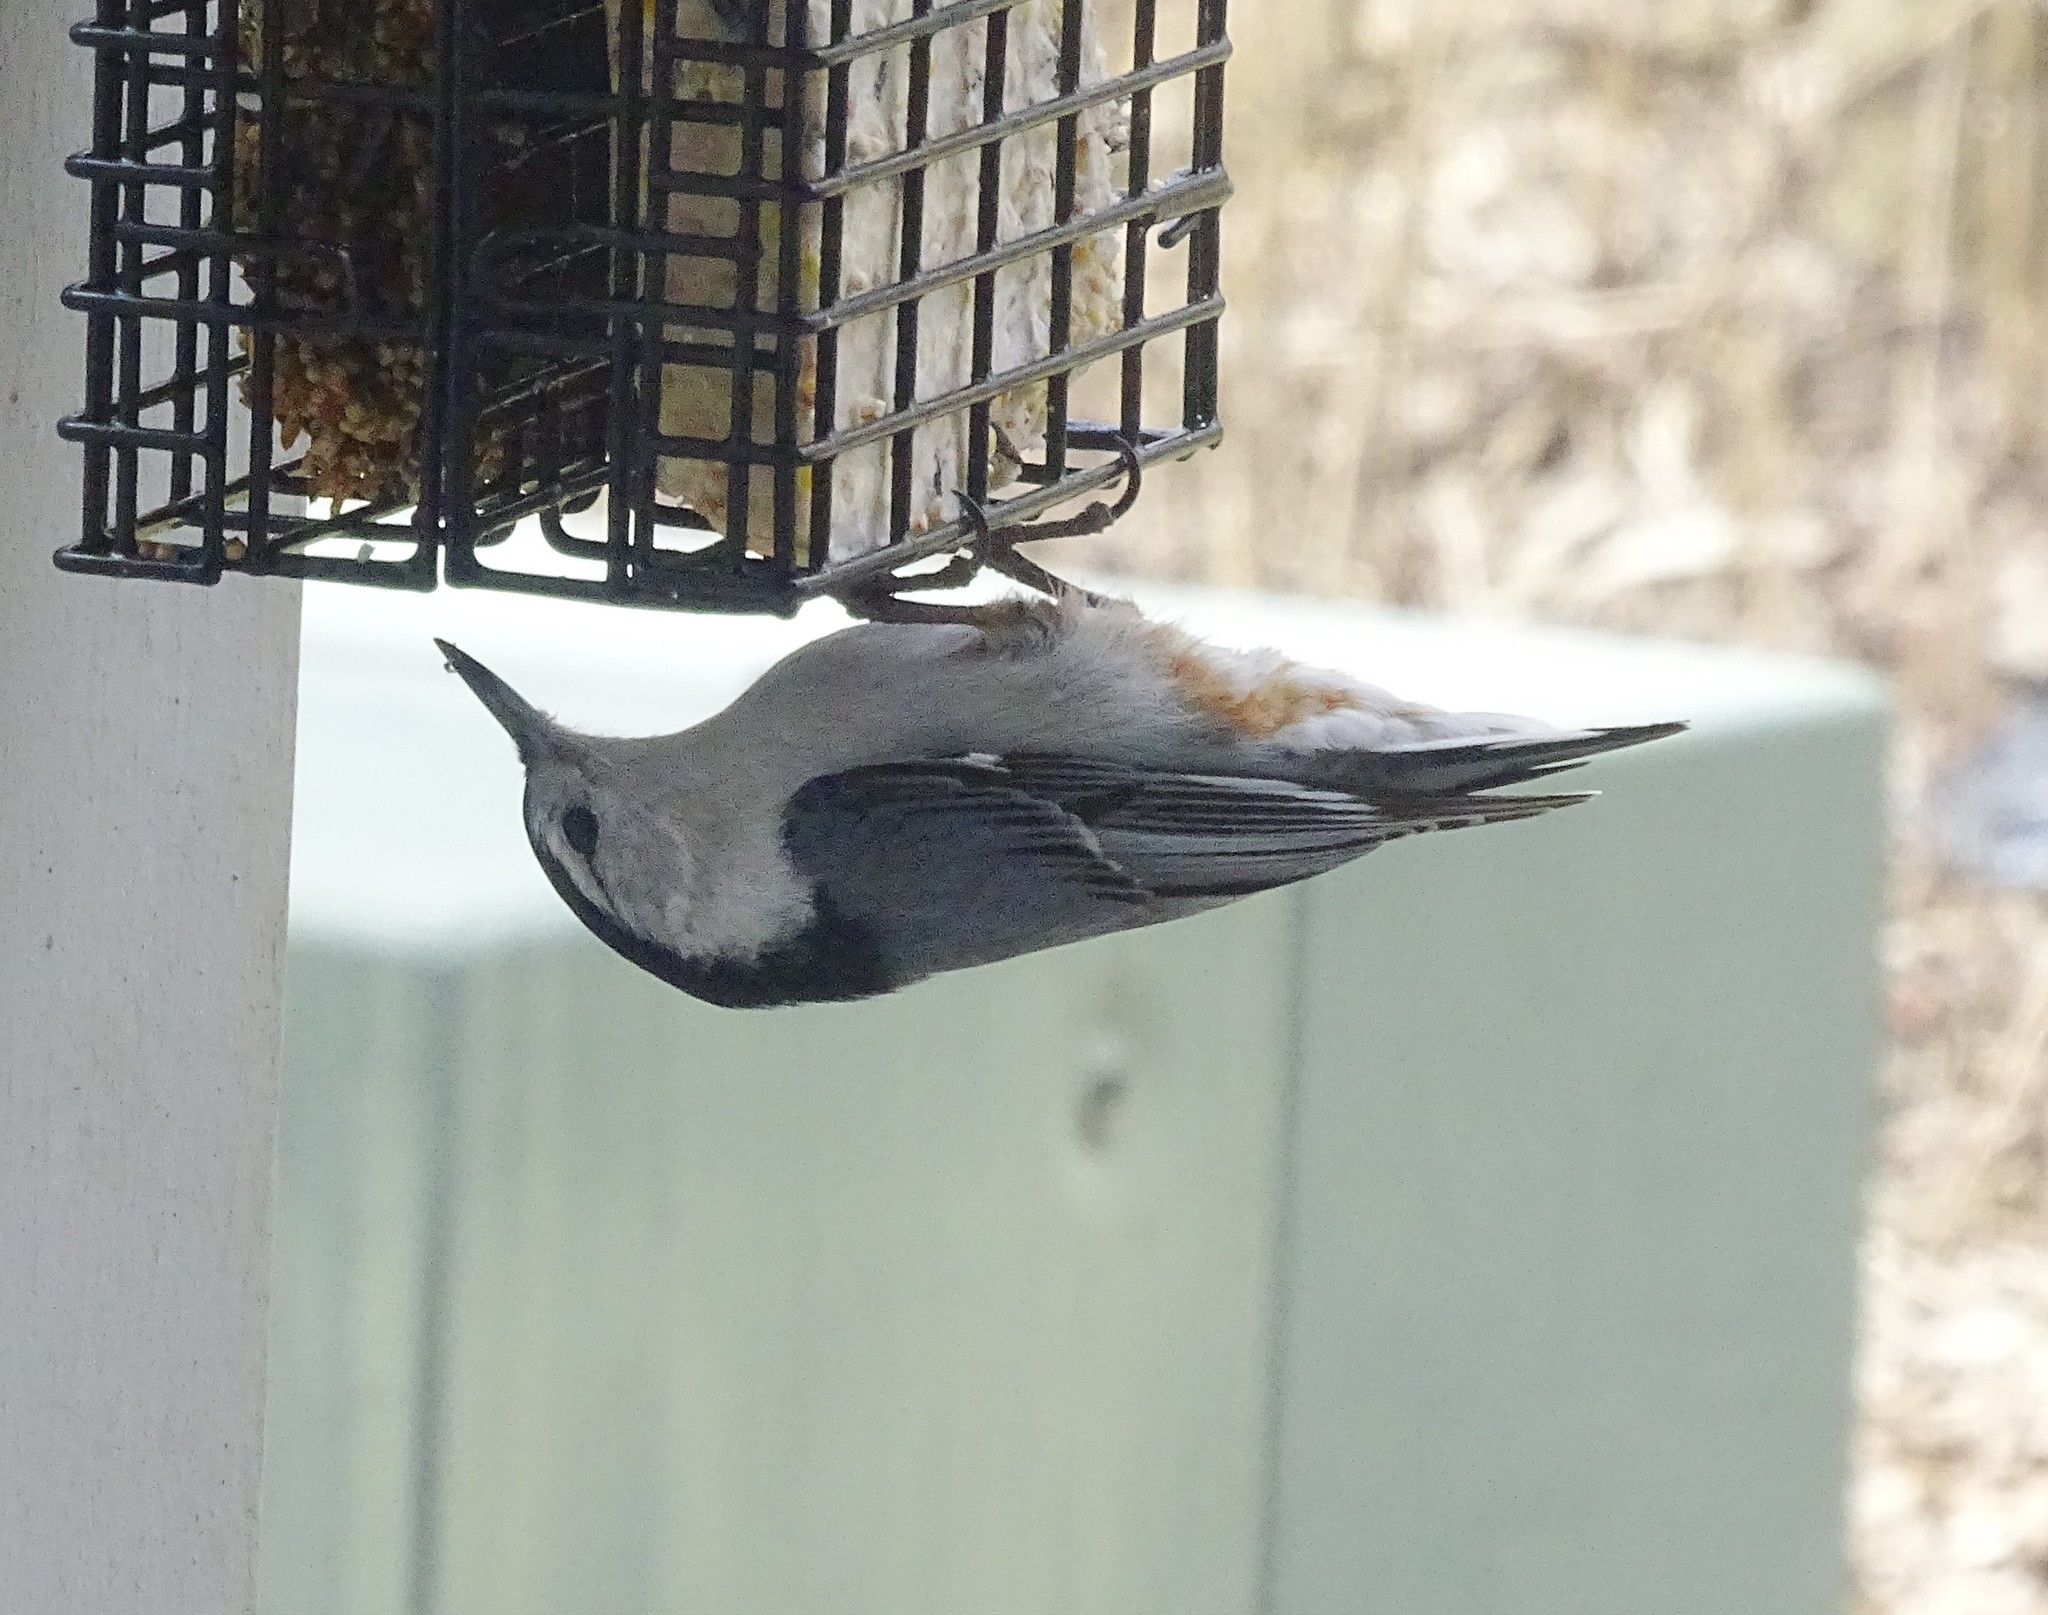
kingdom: Animalia
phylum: Chordata
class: Aves
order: Passeriformes
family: Sittidae
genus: Sitta
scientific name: Sitta carolinensis
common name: White-breasted nuthatch
